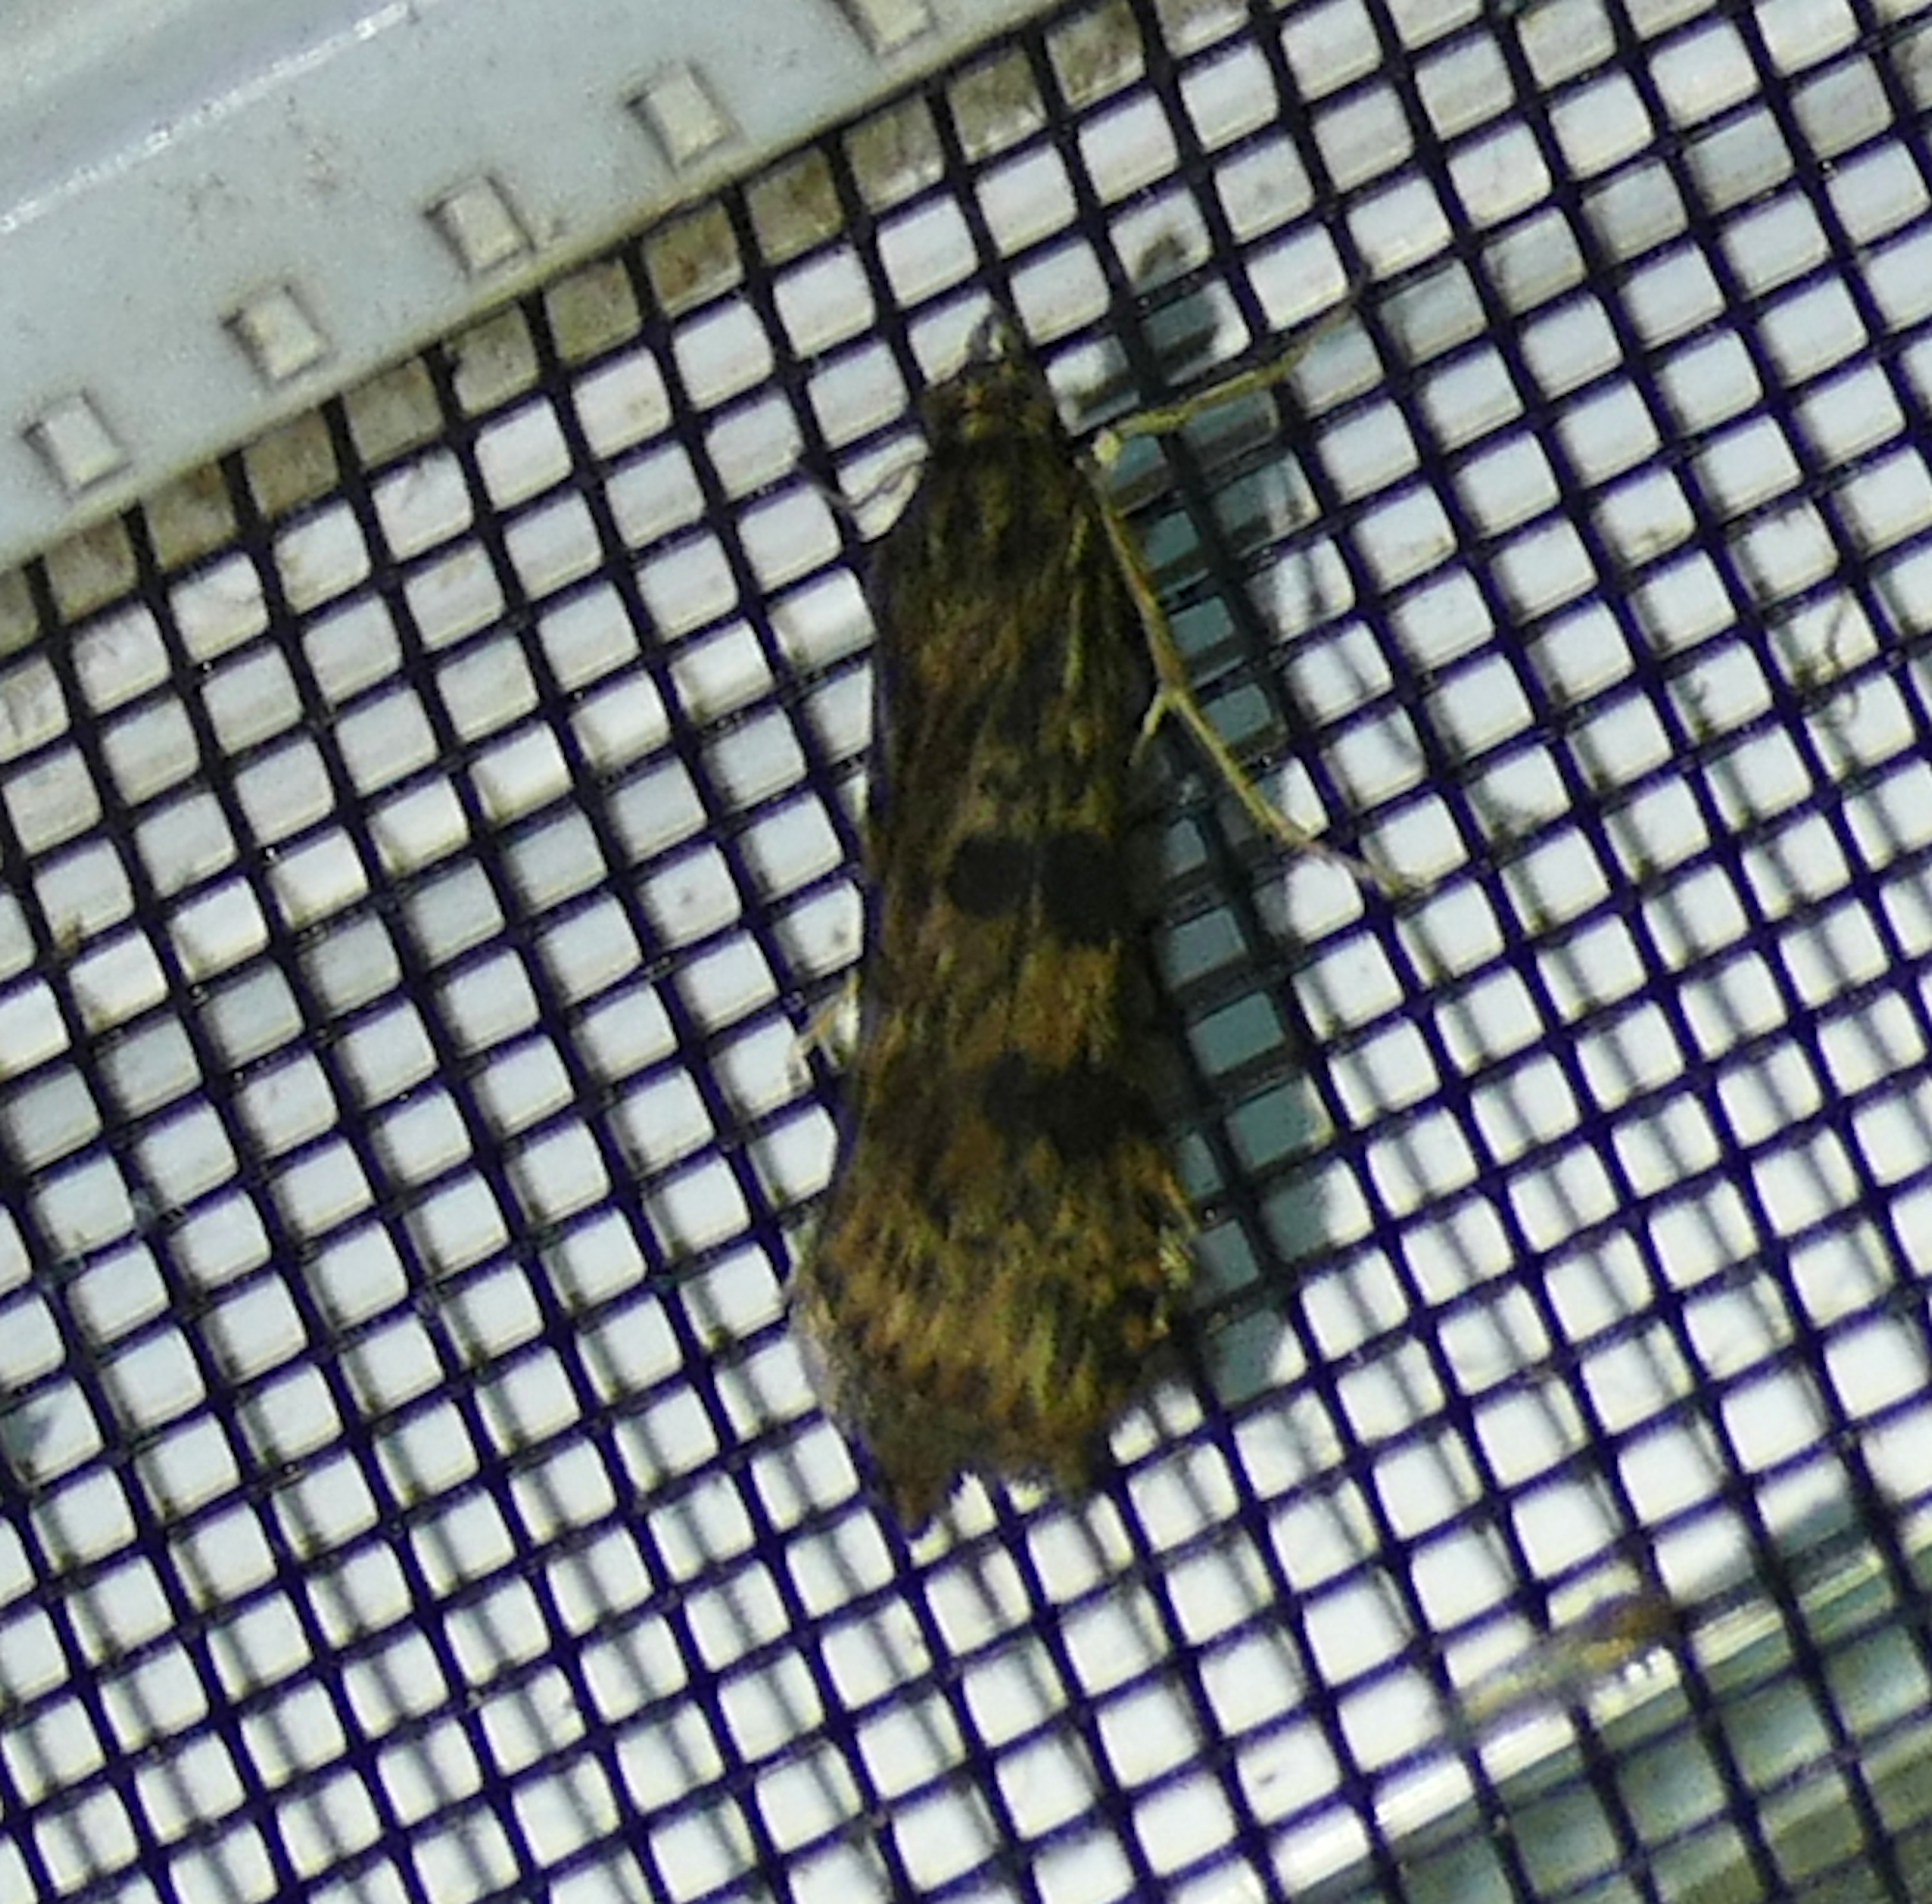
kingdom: Animalia
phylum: Arthropoda
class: Insecta
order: Lepidoptera
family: Crambidae
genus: Nomophila
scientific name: Nomophila nearctica
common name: American rush veneer
